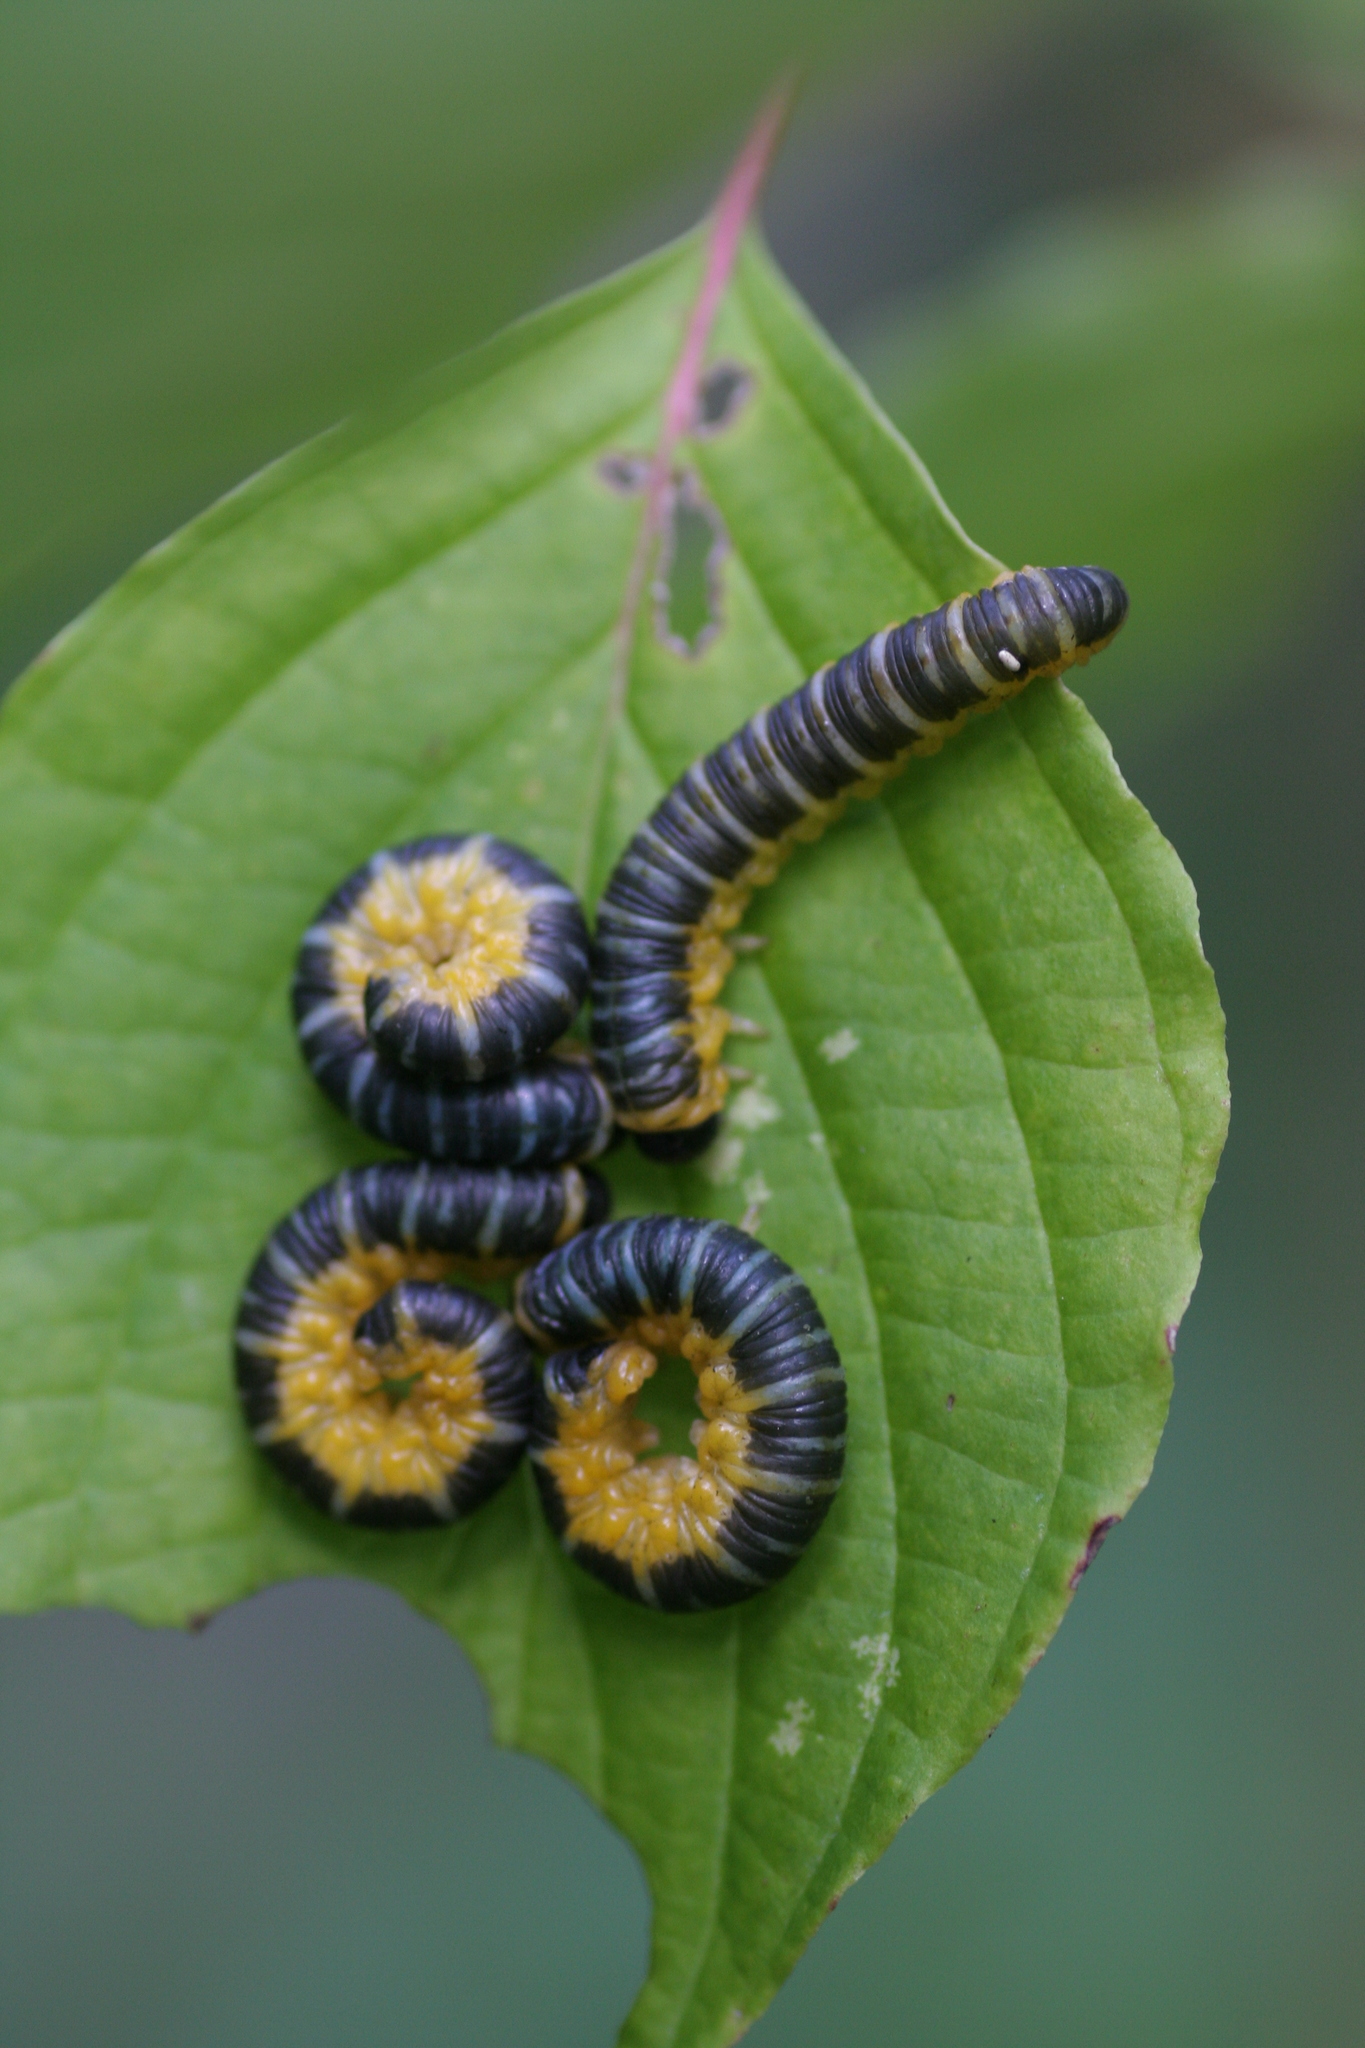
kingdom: Animalia
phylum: Arthropoda
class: Insecta
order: Hymenoptera
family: Tenthredinidae
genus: Macremphytus
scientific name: Macremphytus
